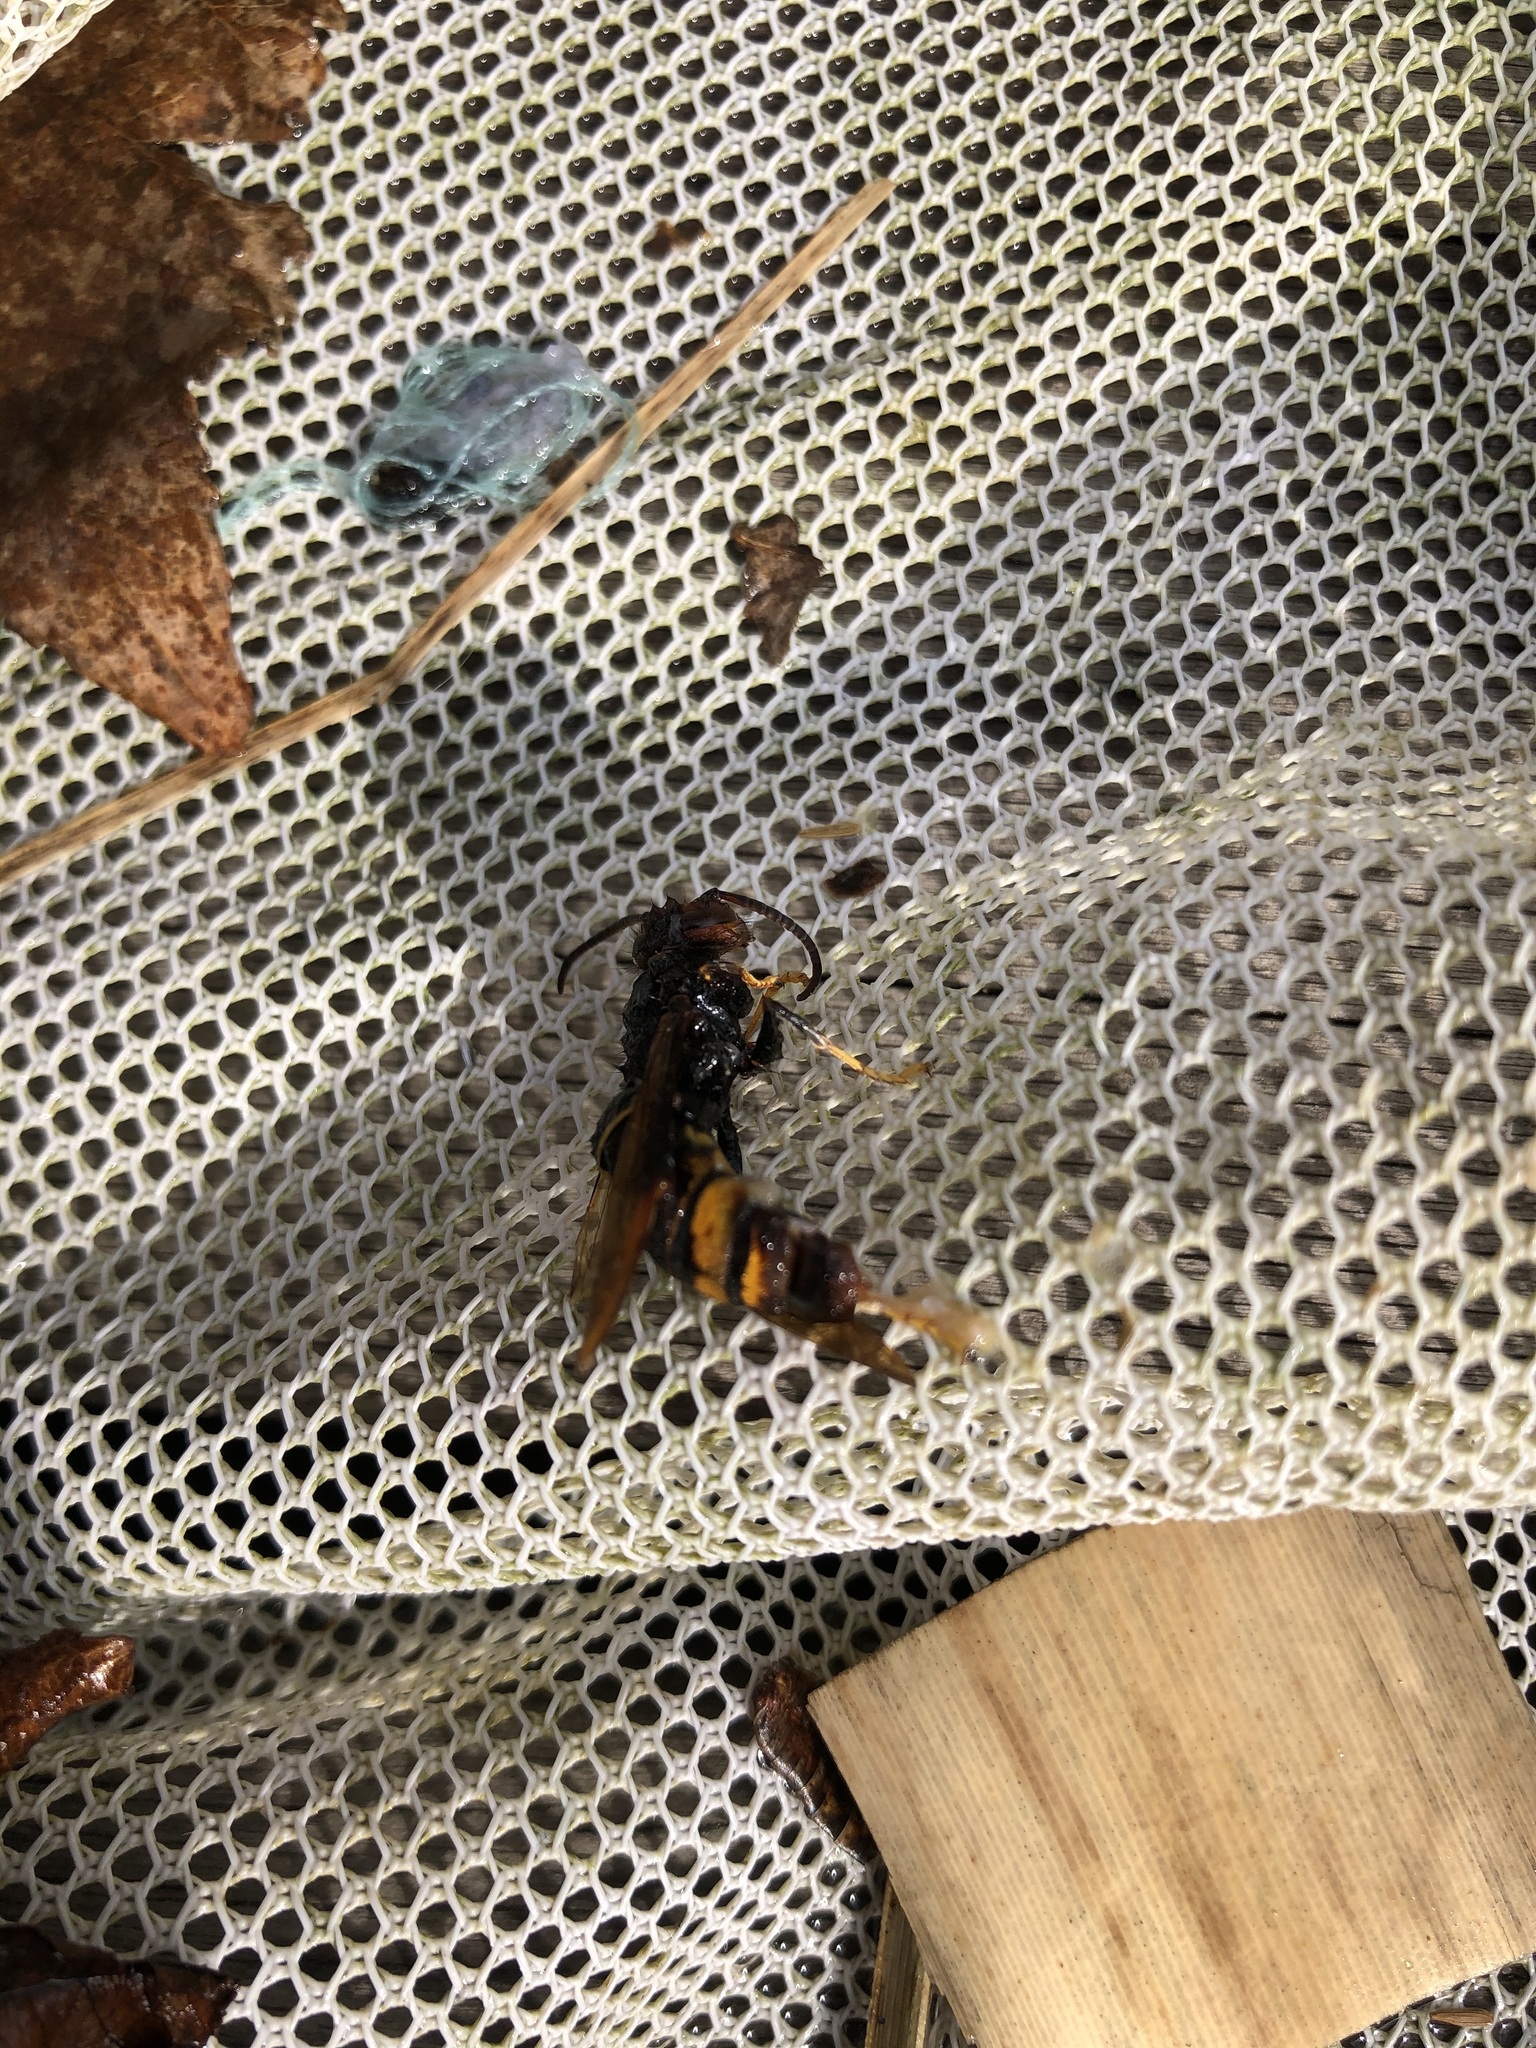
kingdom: Animalia
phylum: Arthropoda
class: Insecta
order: Hymenoptera
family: Vespidae
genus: Vespa
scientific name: Vespa velutina
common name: Asian hornet
